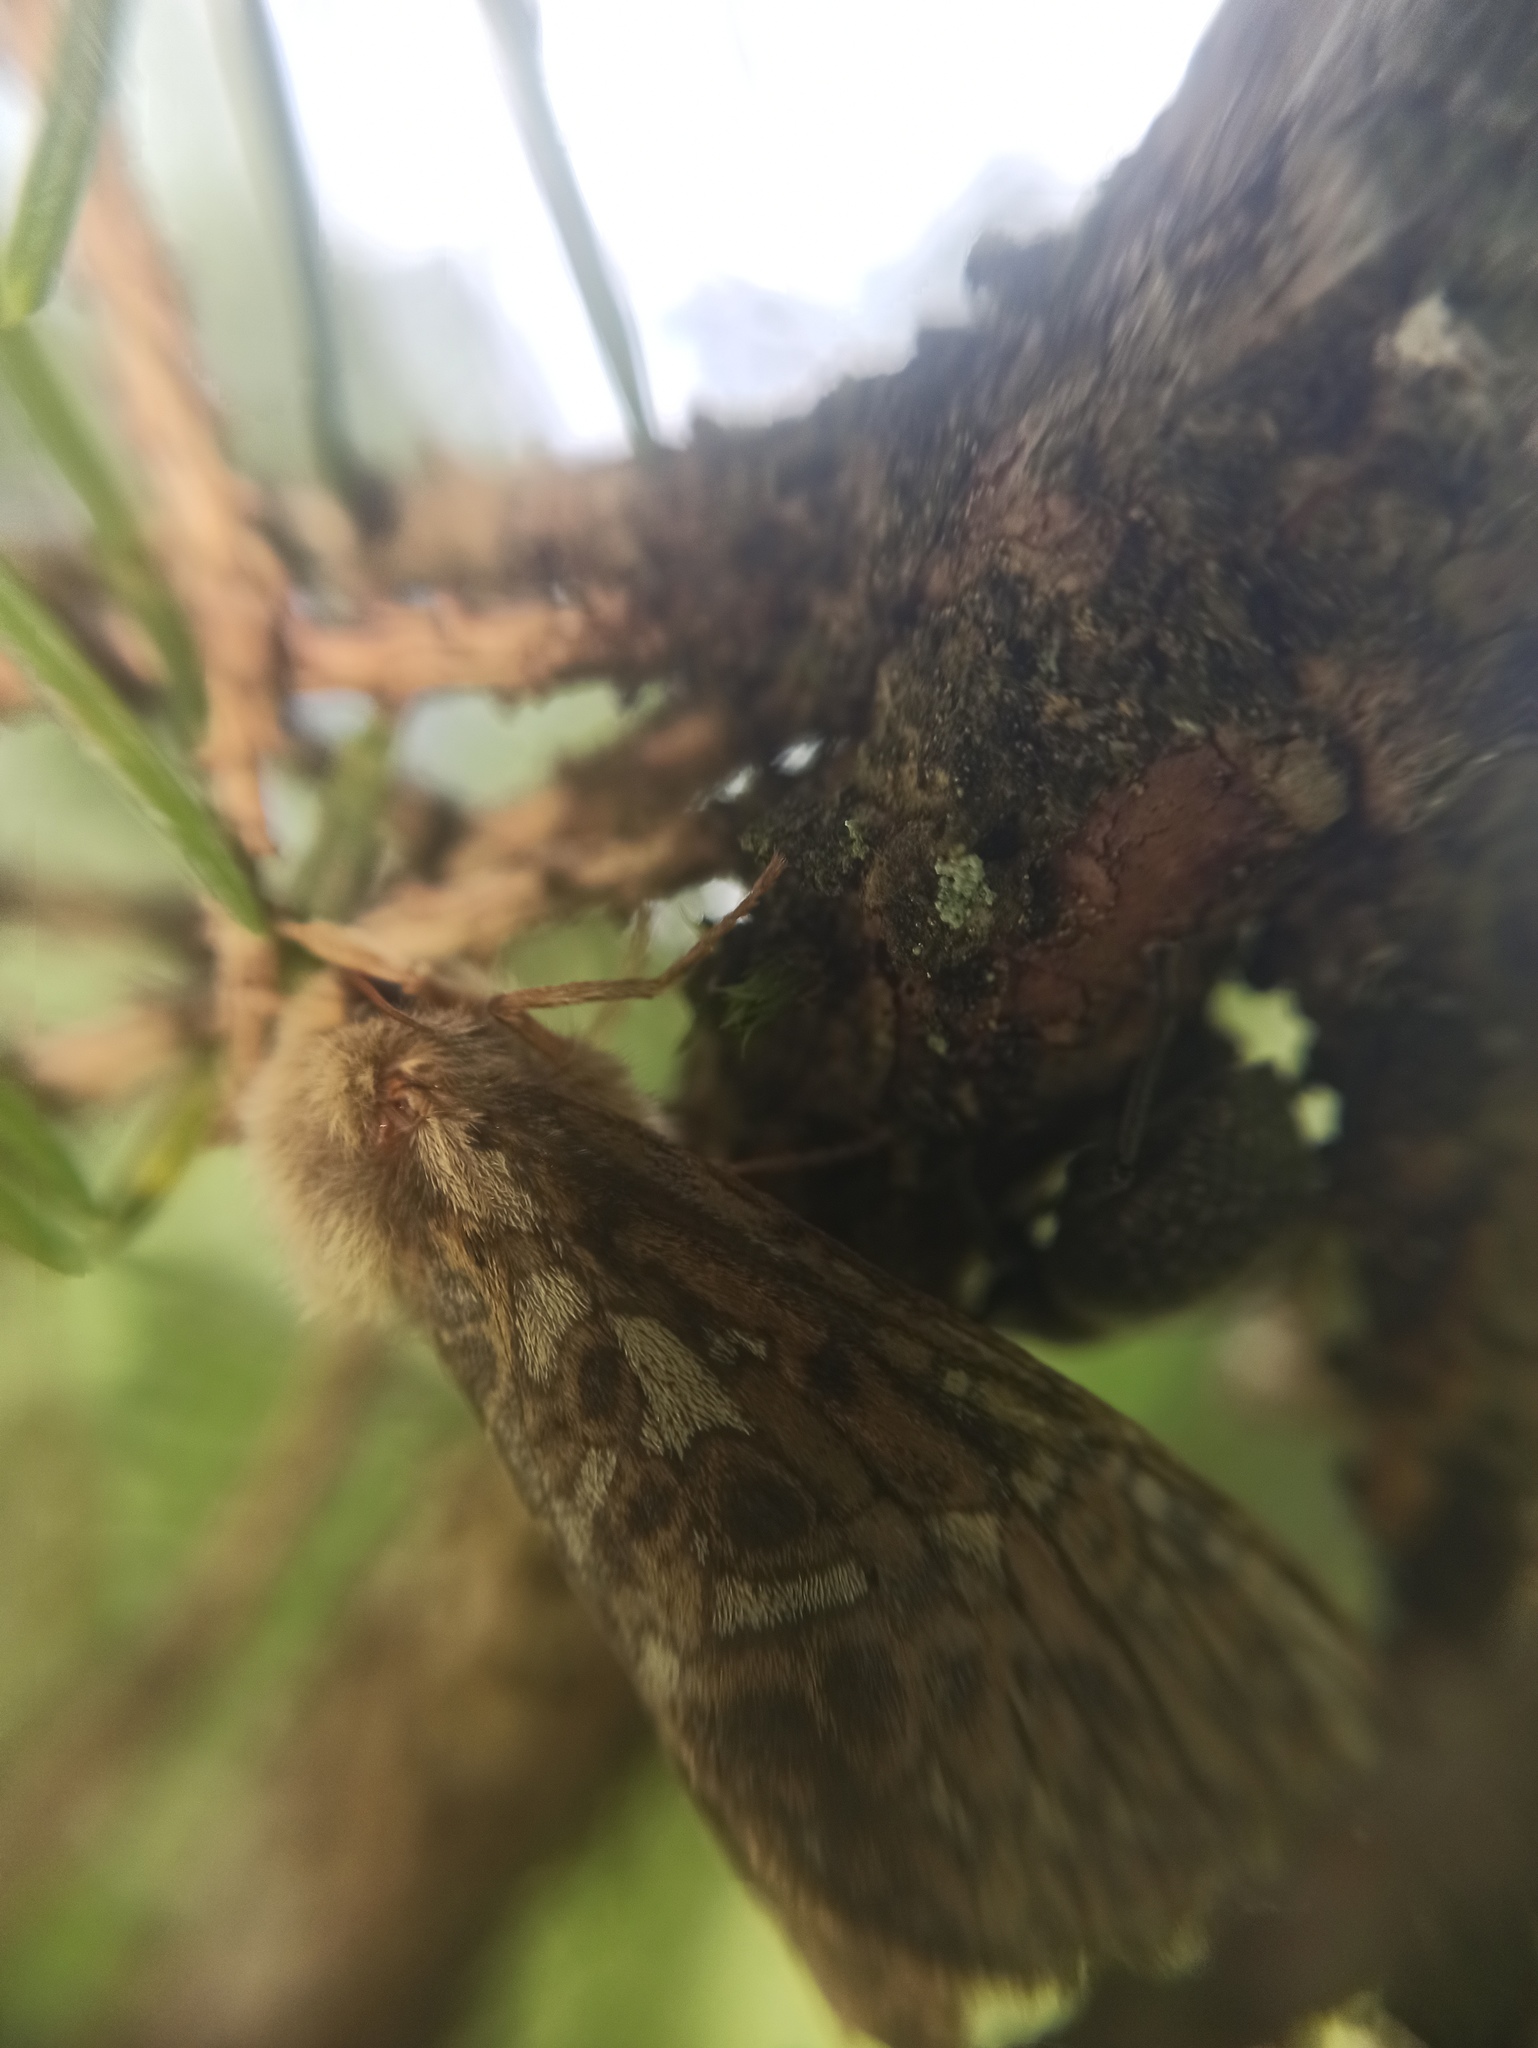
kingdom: Animalia
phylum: Arthropoda
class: Insecta
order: Lepidoptera
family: Hepialidae
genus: Pharmacis
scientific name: Pharmacis carna
